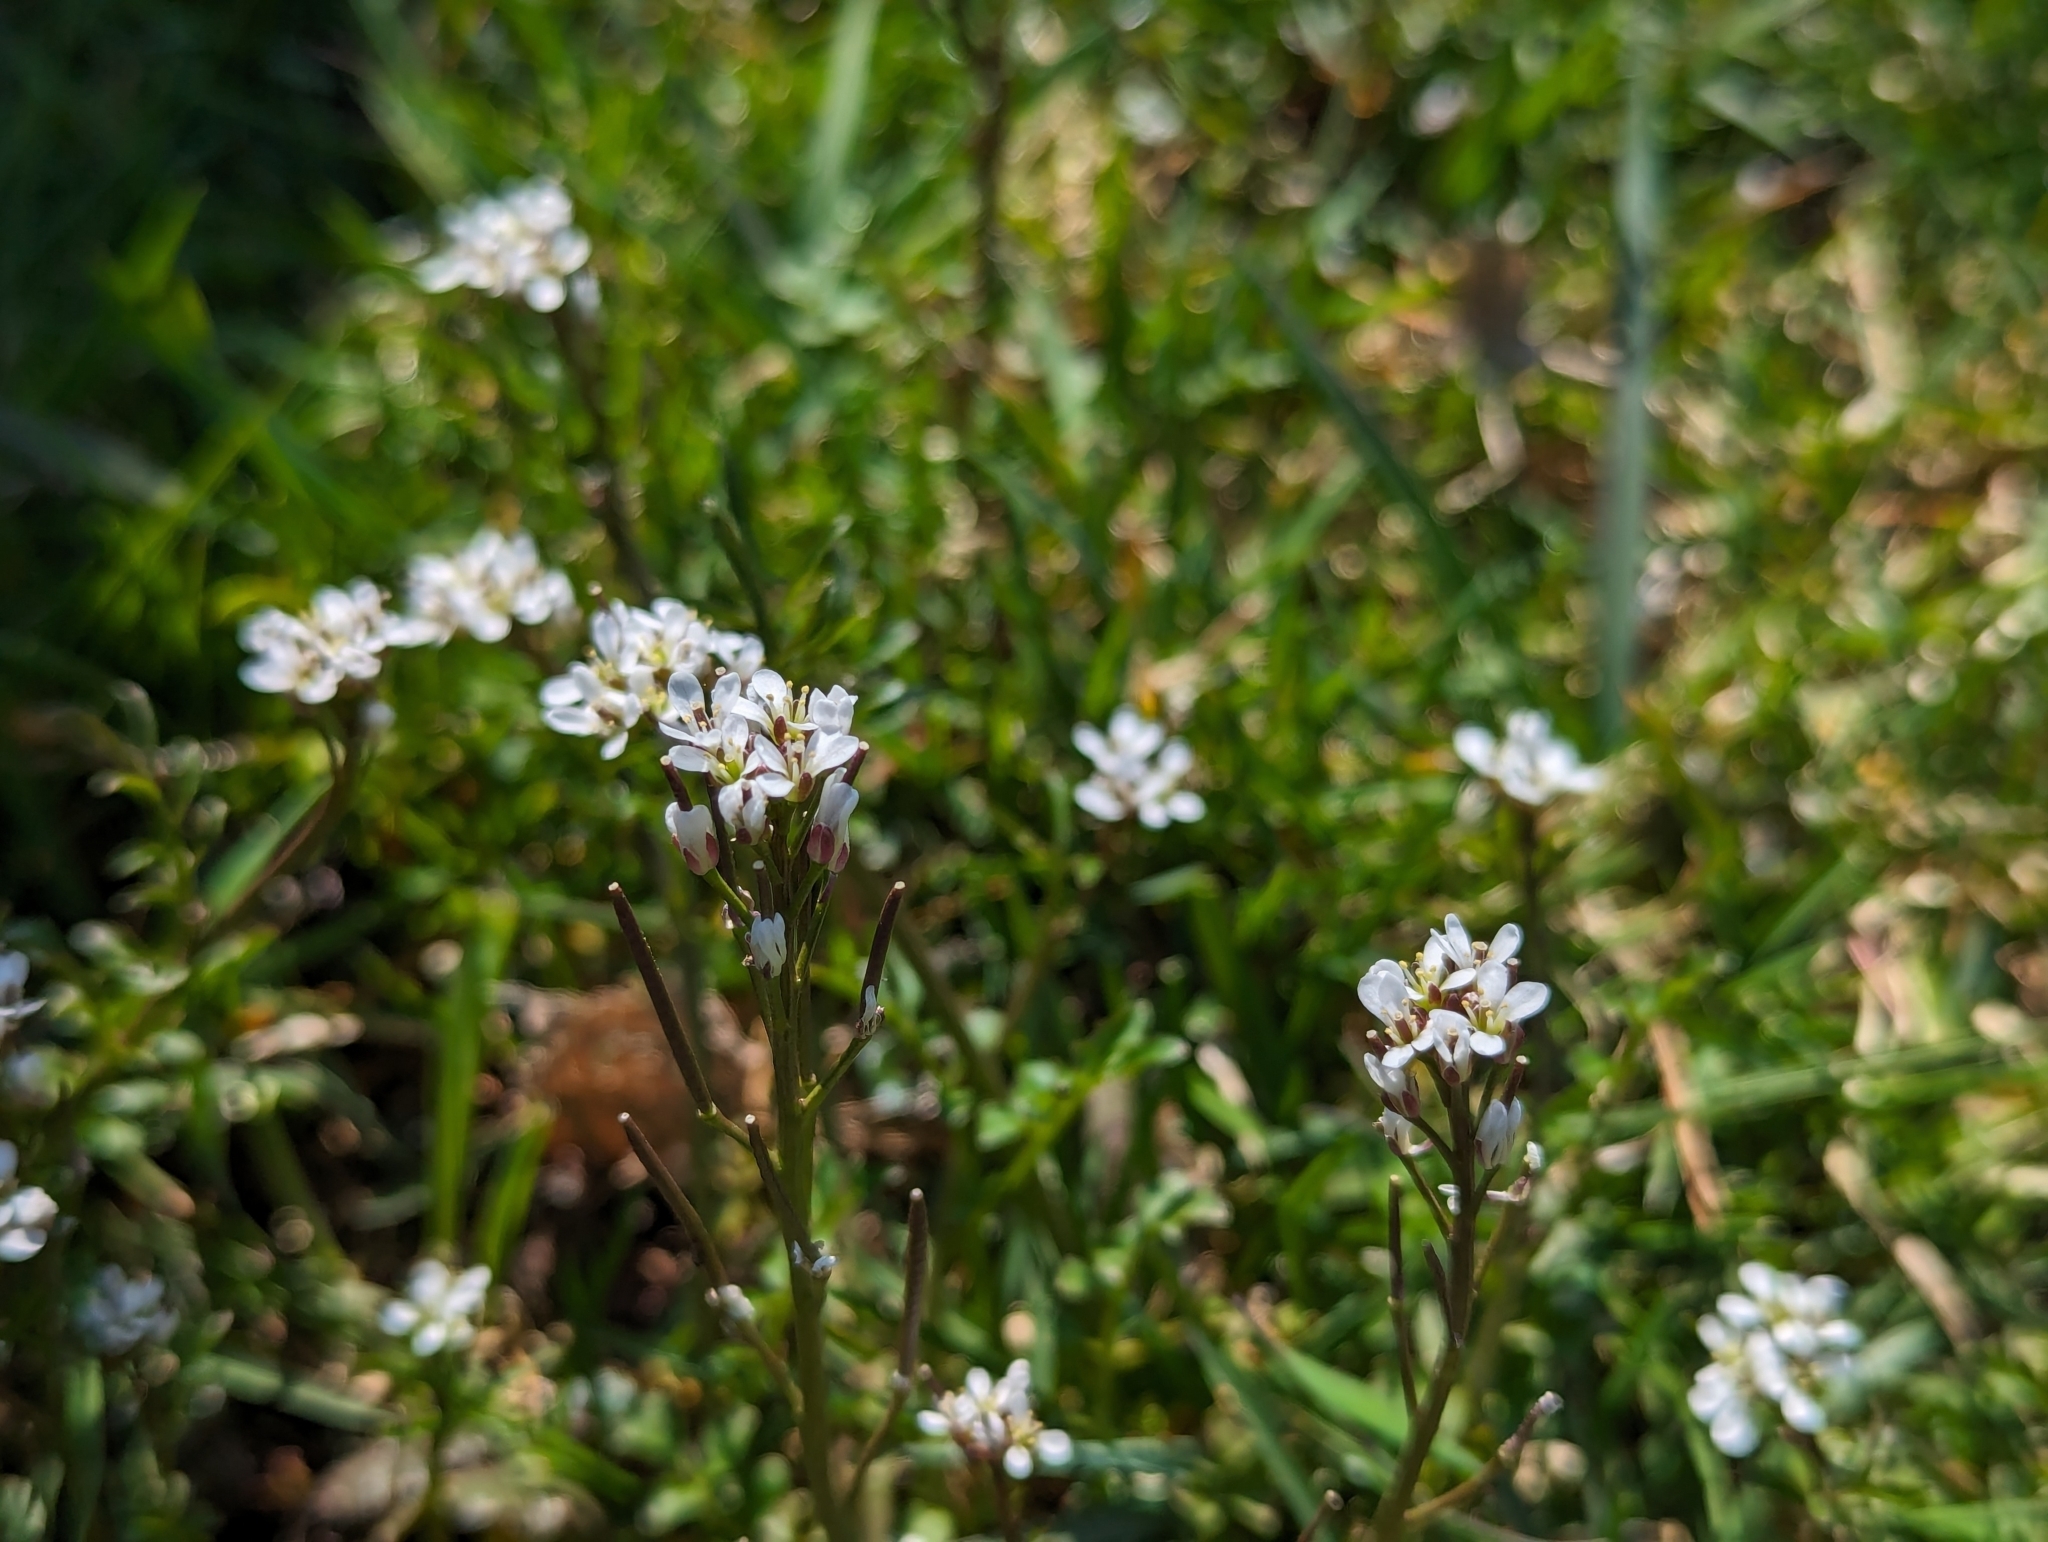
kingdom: Plantae
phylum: Tracheophyta
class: Magnoliopsida
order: Brassicales
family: Brassicaceae
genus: Cardamine
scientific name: Cardamine hirsuta
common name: Hairy bittercress
